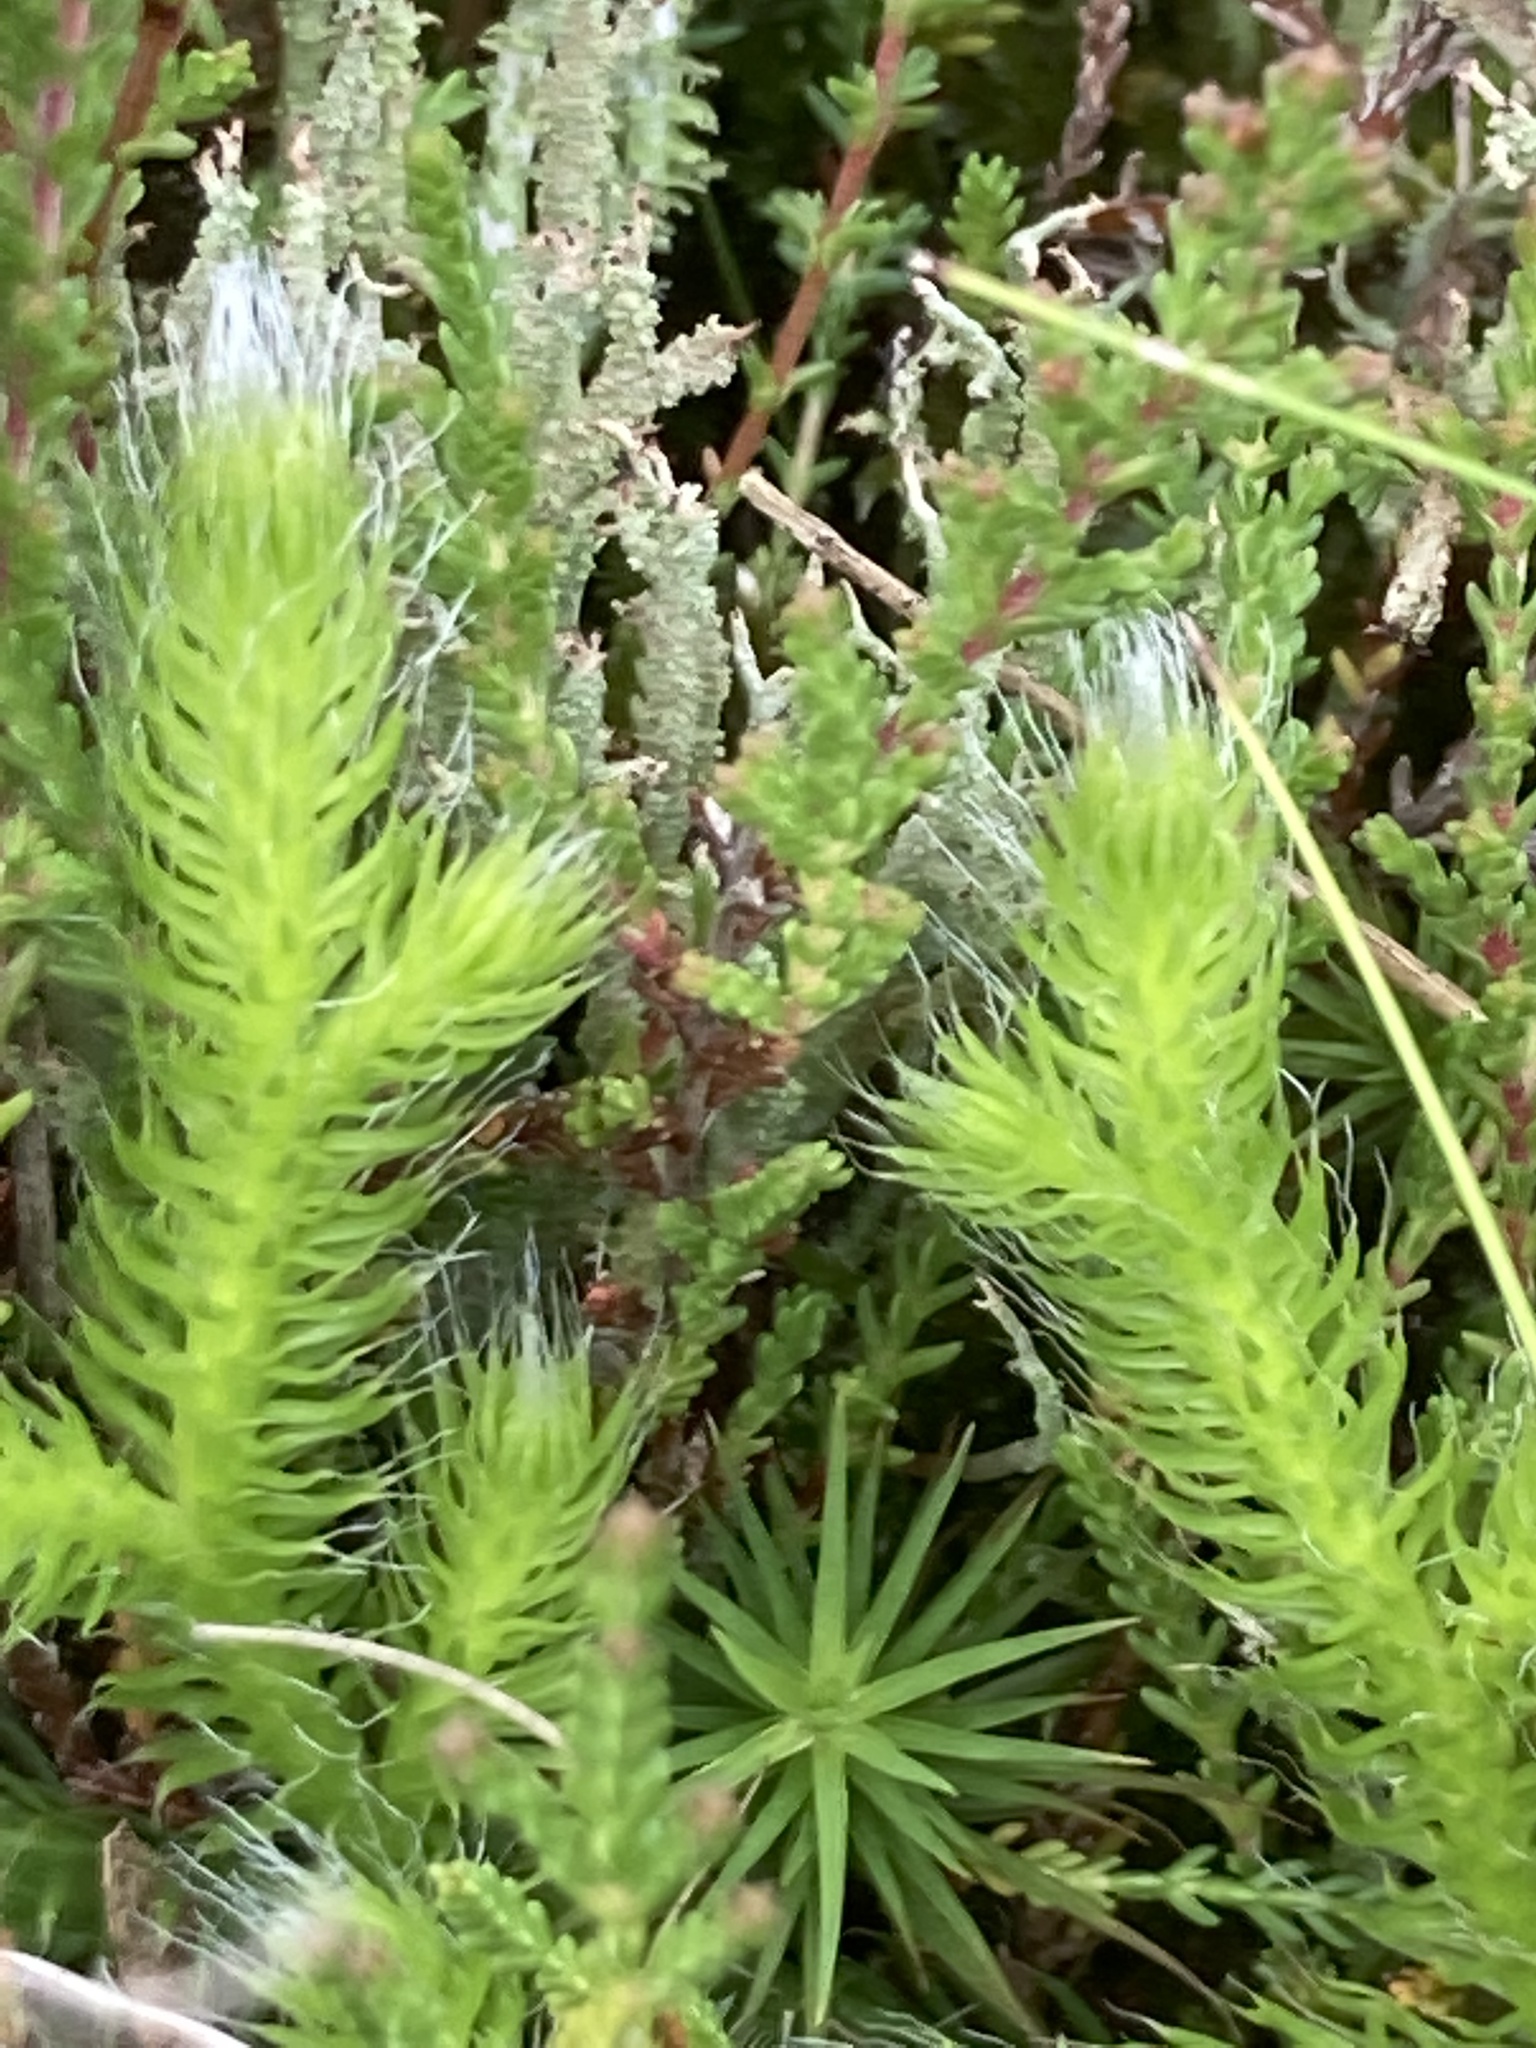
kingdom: Plantae
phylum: Tracheophyta
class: Lycopodiopsida
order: Lycopodiales
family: Lycopodiaceae
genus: Lycopodium
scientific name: Lycopodium clavatum
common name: Stag's-horn clubmoss
